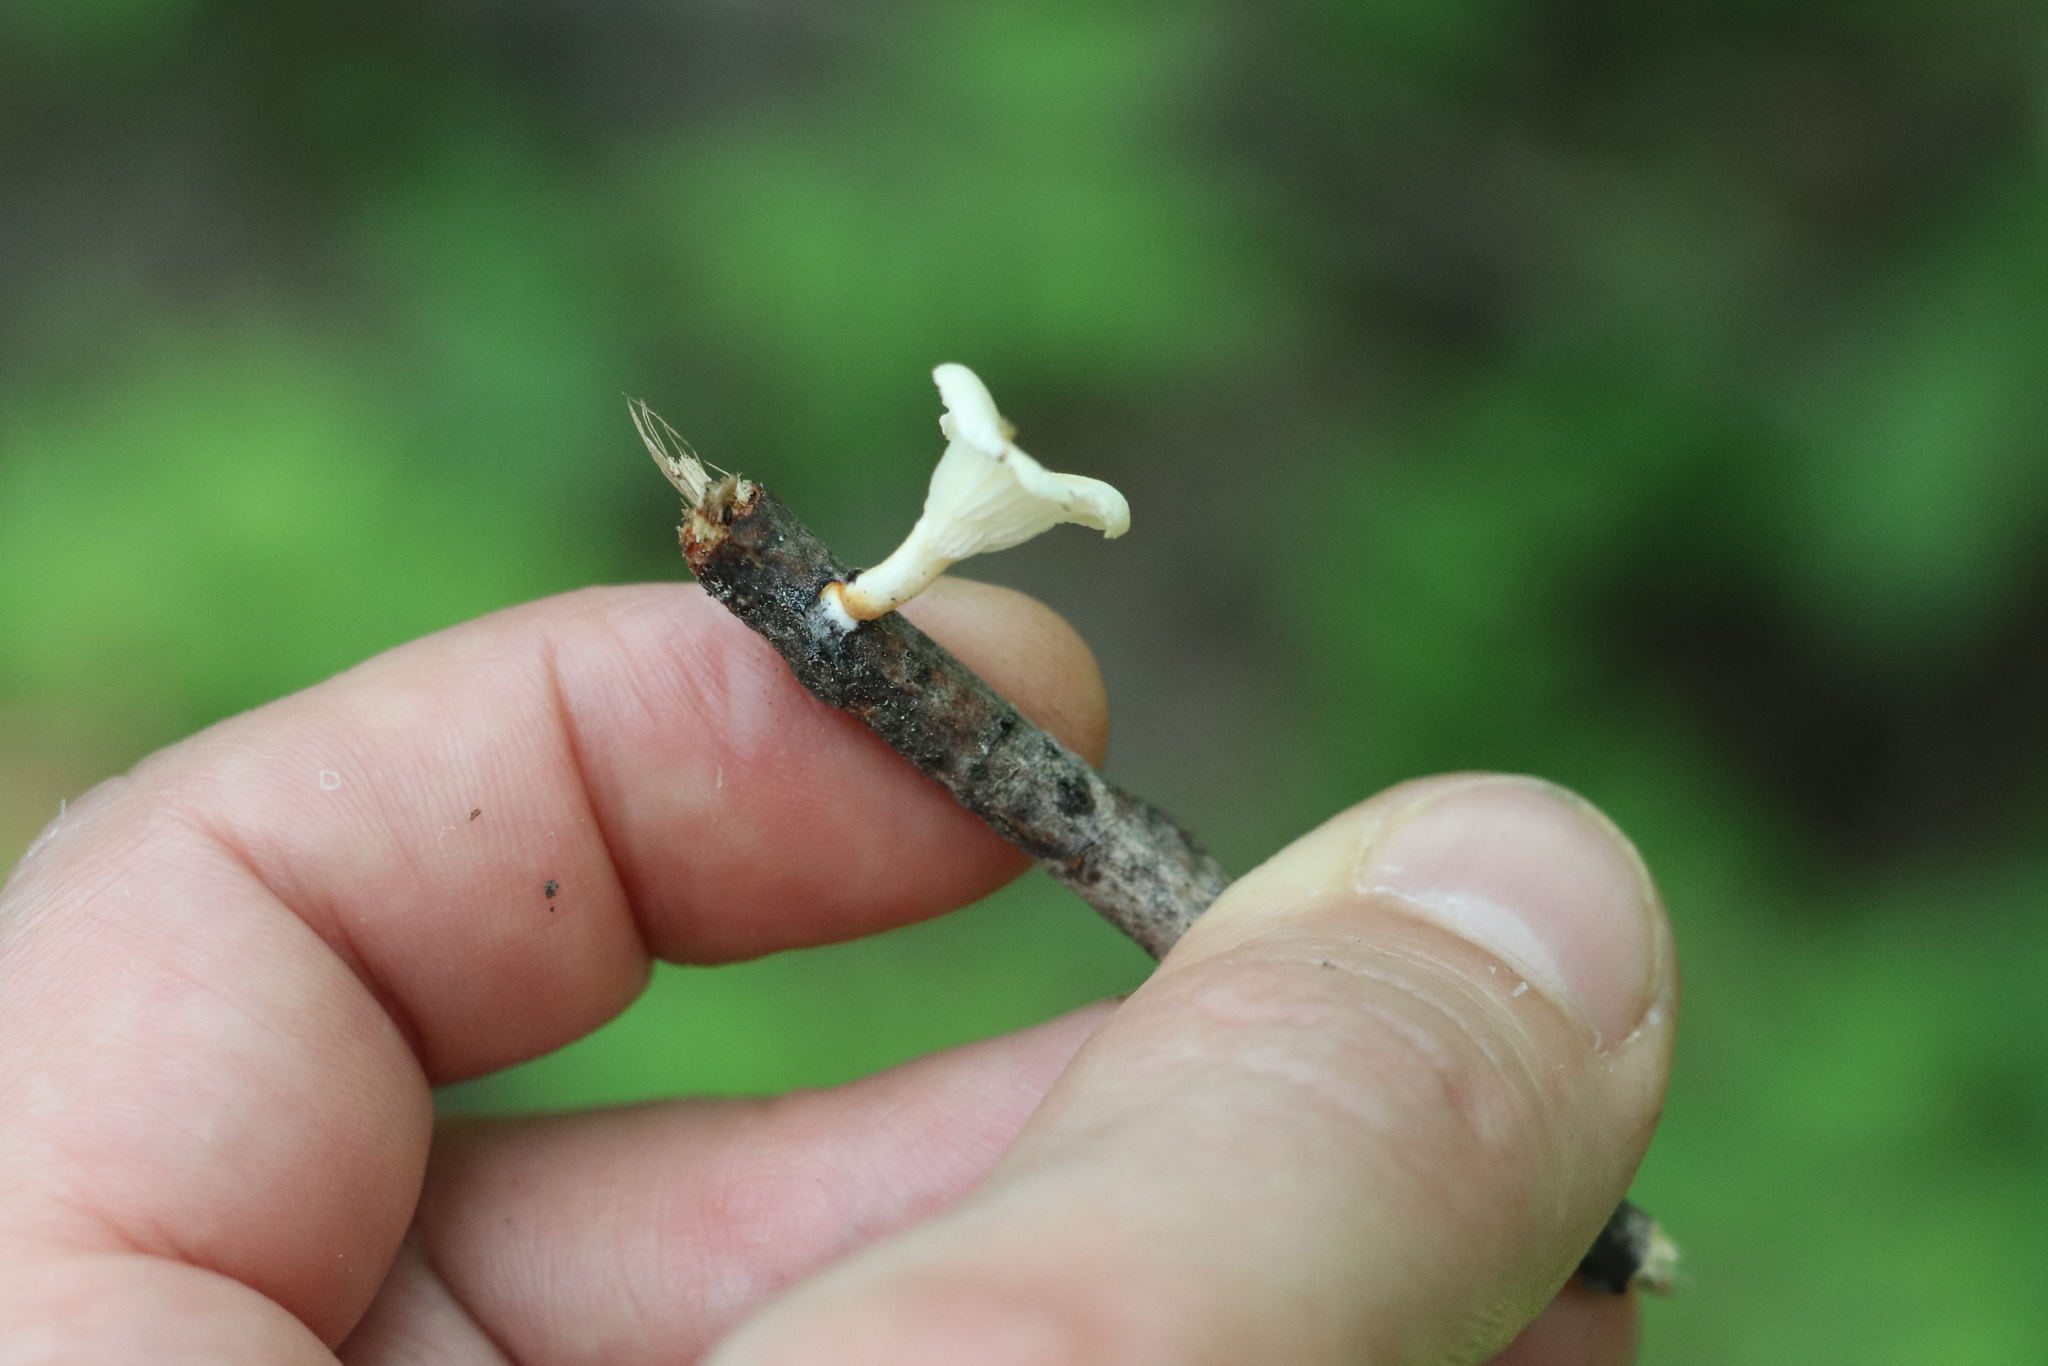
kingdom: Fungi
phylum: Basidiomycota
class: Agaricomycetes
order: Polyporales
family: Polyporaceae
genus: Neofavolus
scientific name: Neofavolus suavissimus
